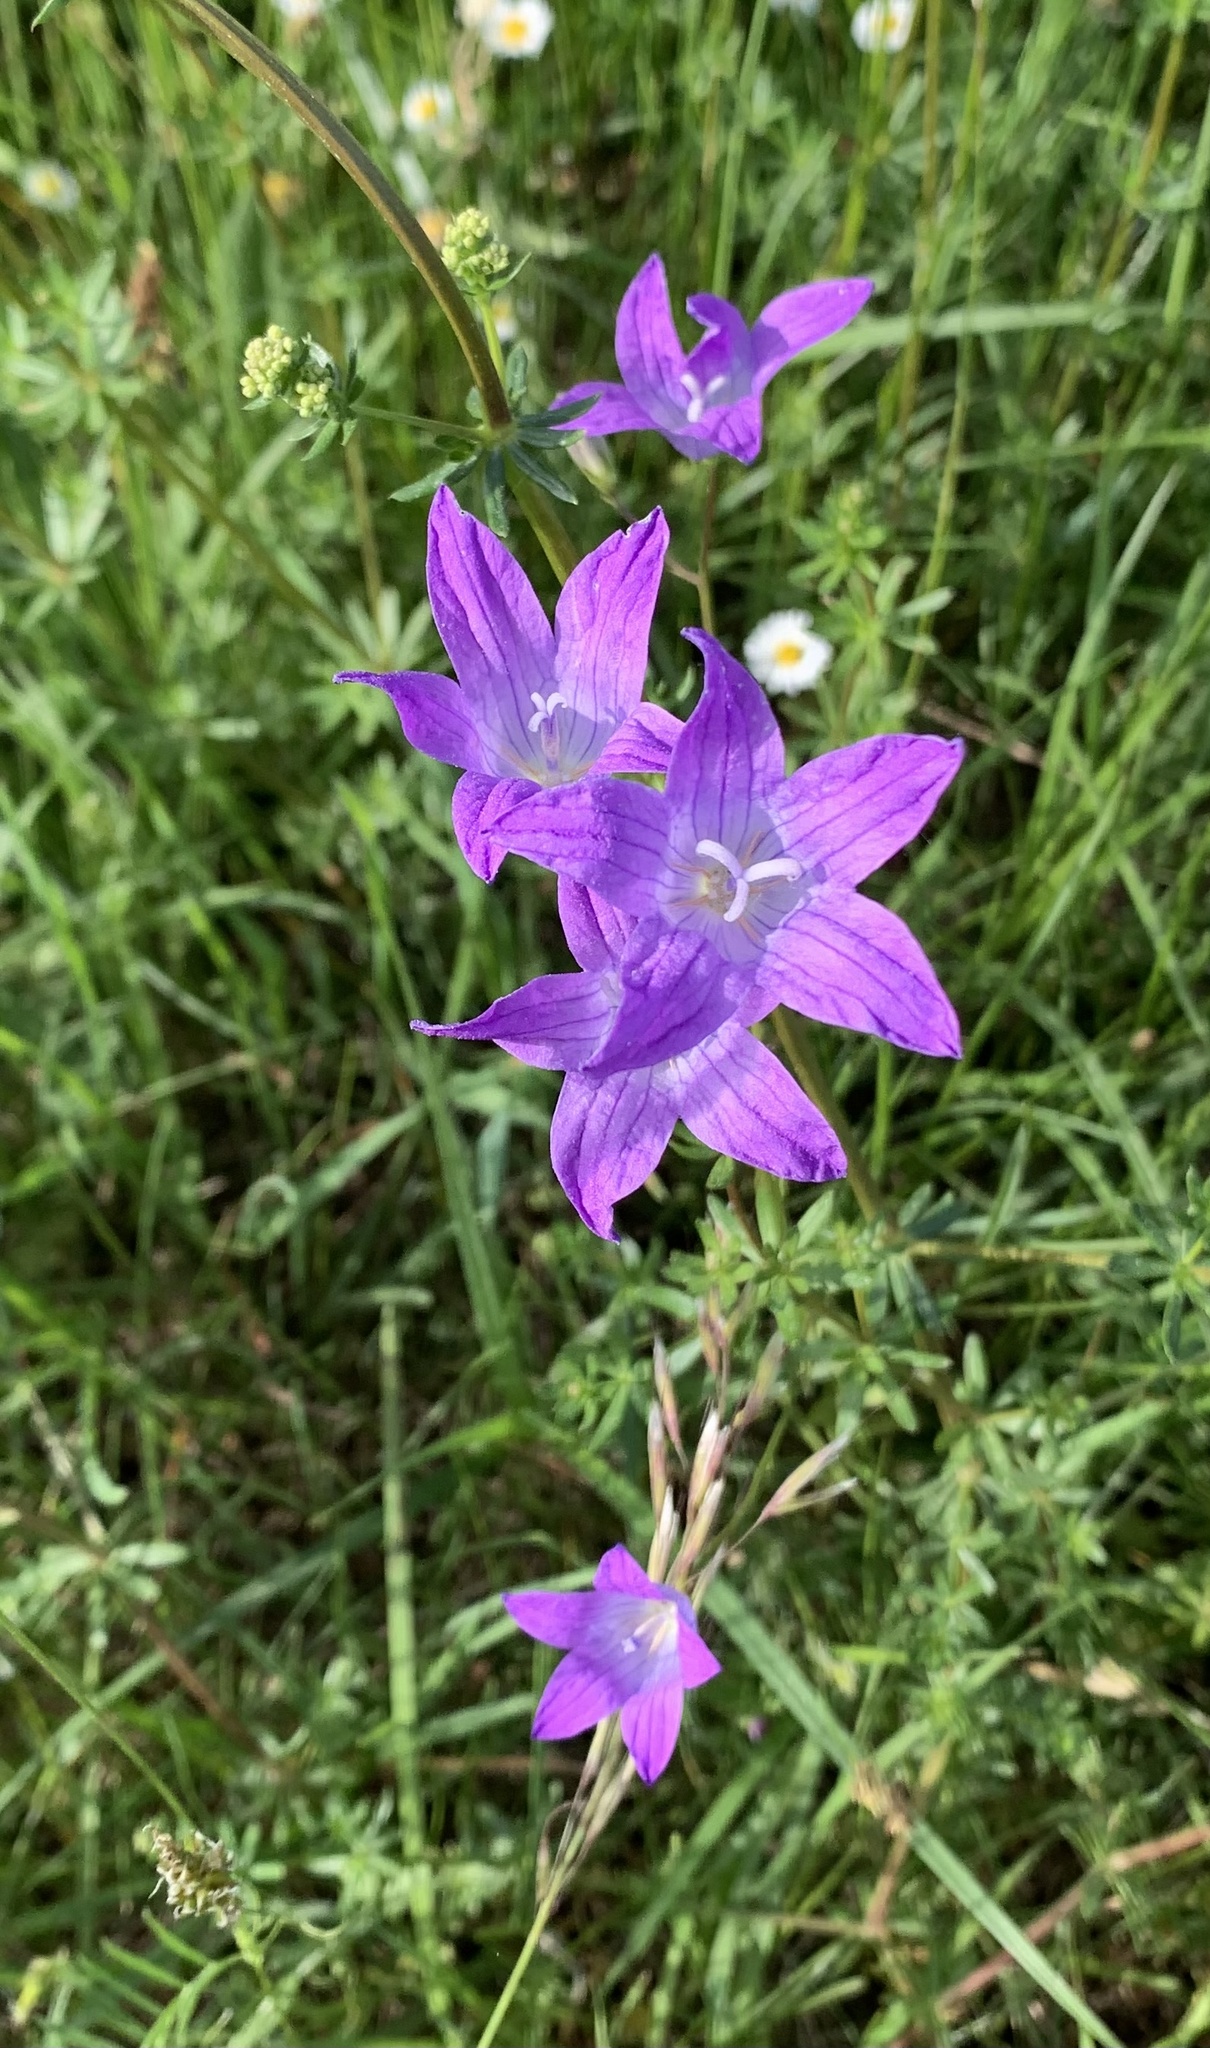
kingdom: Plantae
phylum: Tracheophyta
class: Magnoliopsida
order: Asterales
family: Campanulaceae
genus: Campanula
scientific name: Campanula patula
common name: Spreading bellflower
